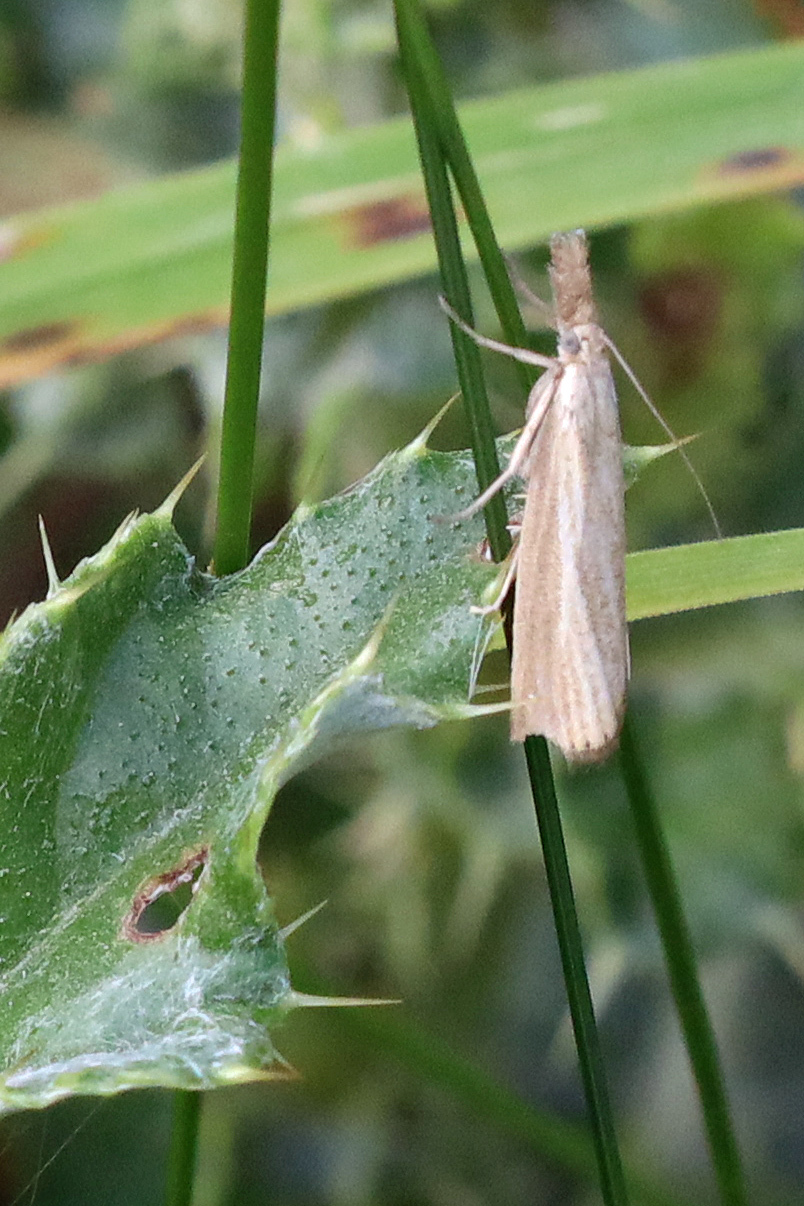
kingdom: Animalia
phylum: Arthropoda
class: Insecta
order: Lepidoptera
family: Crambidae
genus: Agriphila
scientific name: Agriphila straminella
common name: Straw grass-veneer
